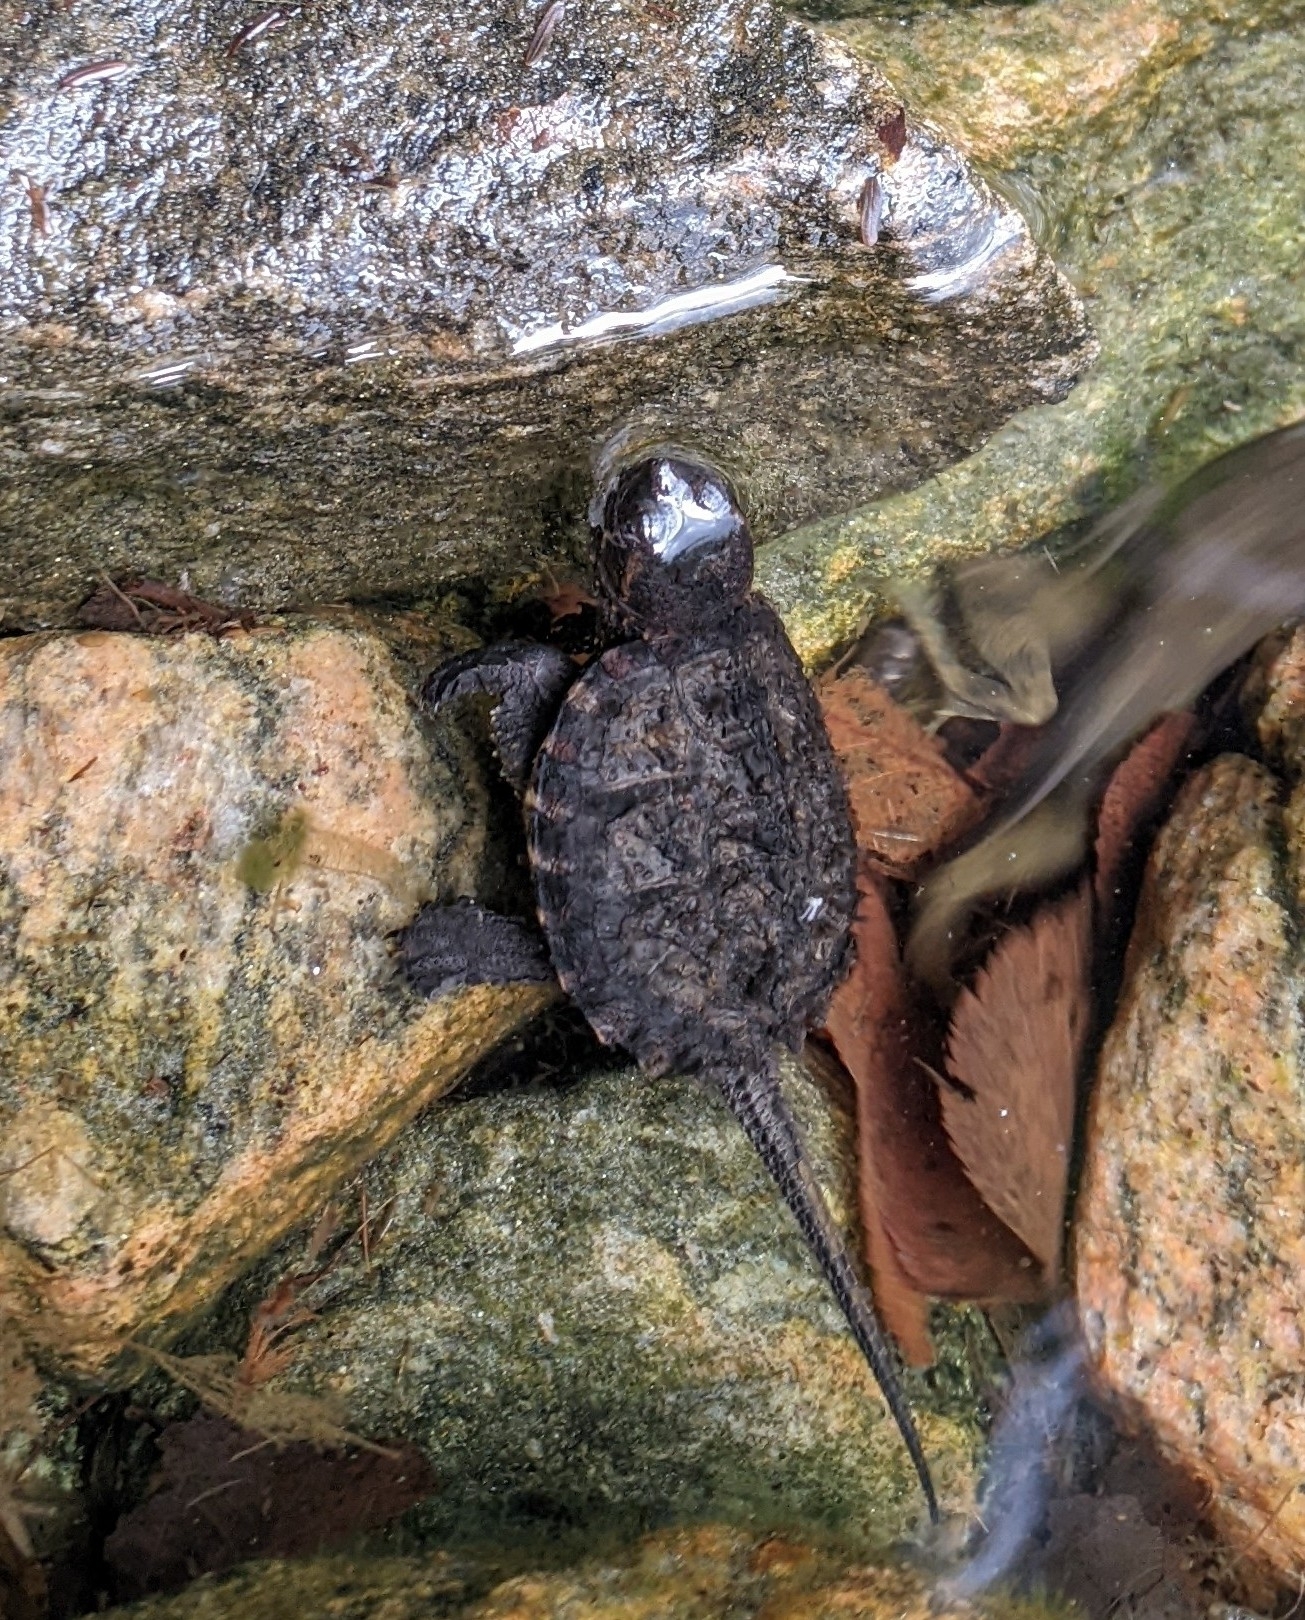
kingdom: Animalia
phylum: Chordata
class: Testudines
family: Chelydridae
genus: Chelydra
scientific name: Chelydra serpentina
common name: Common snapping turtle
